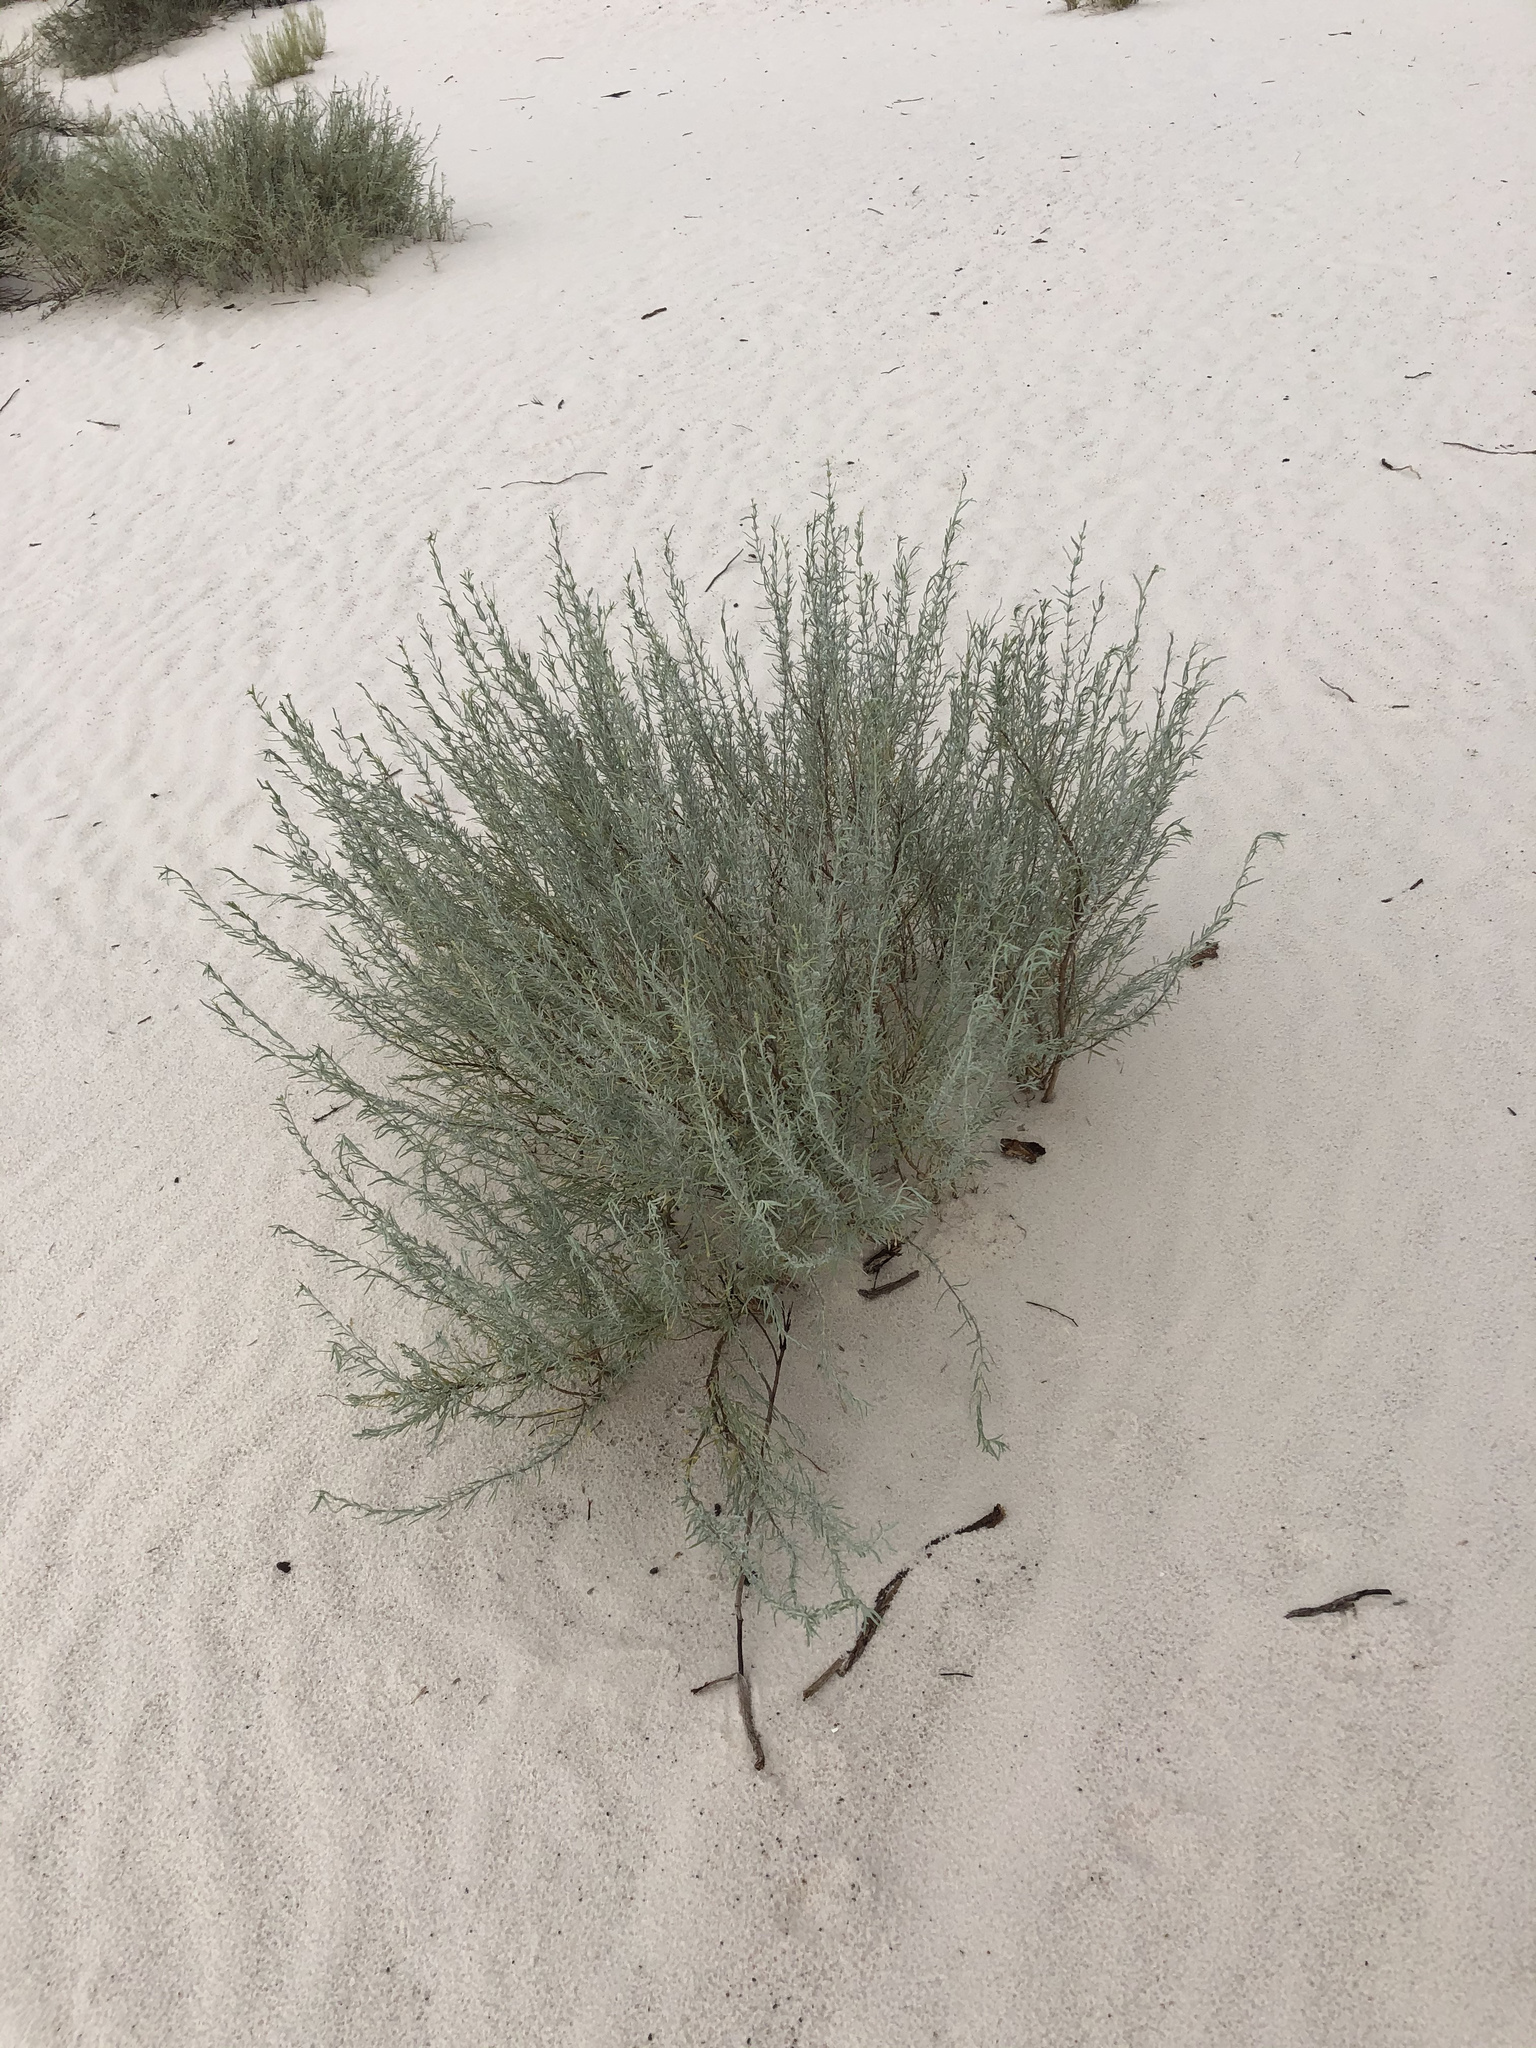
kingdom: Plantae
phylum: Tracheophyta
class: Magnoliopsida
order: Lamiales
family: Lamiaceae
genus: Poliomintha
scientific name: Poliomintha incana
